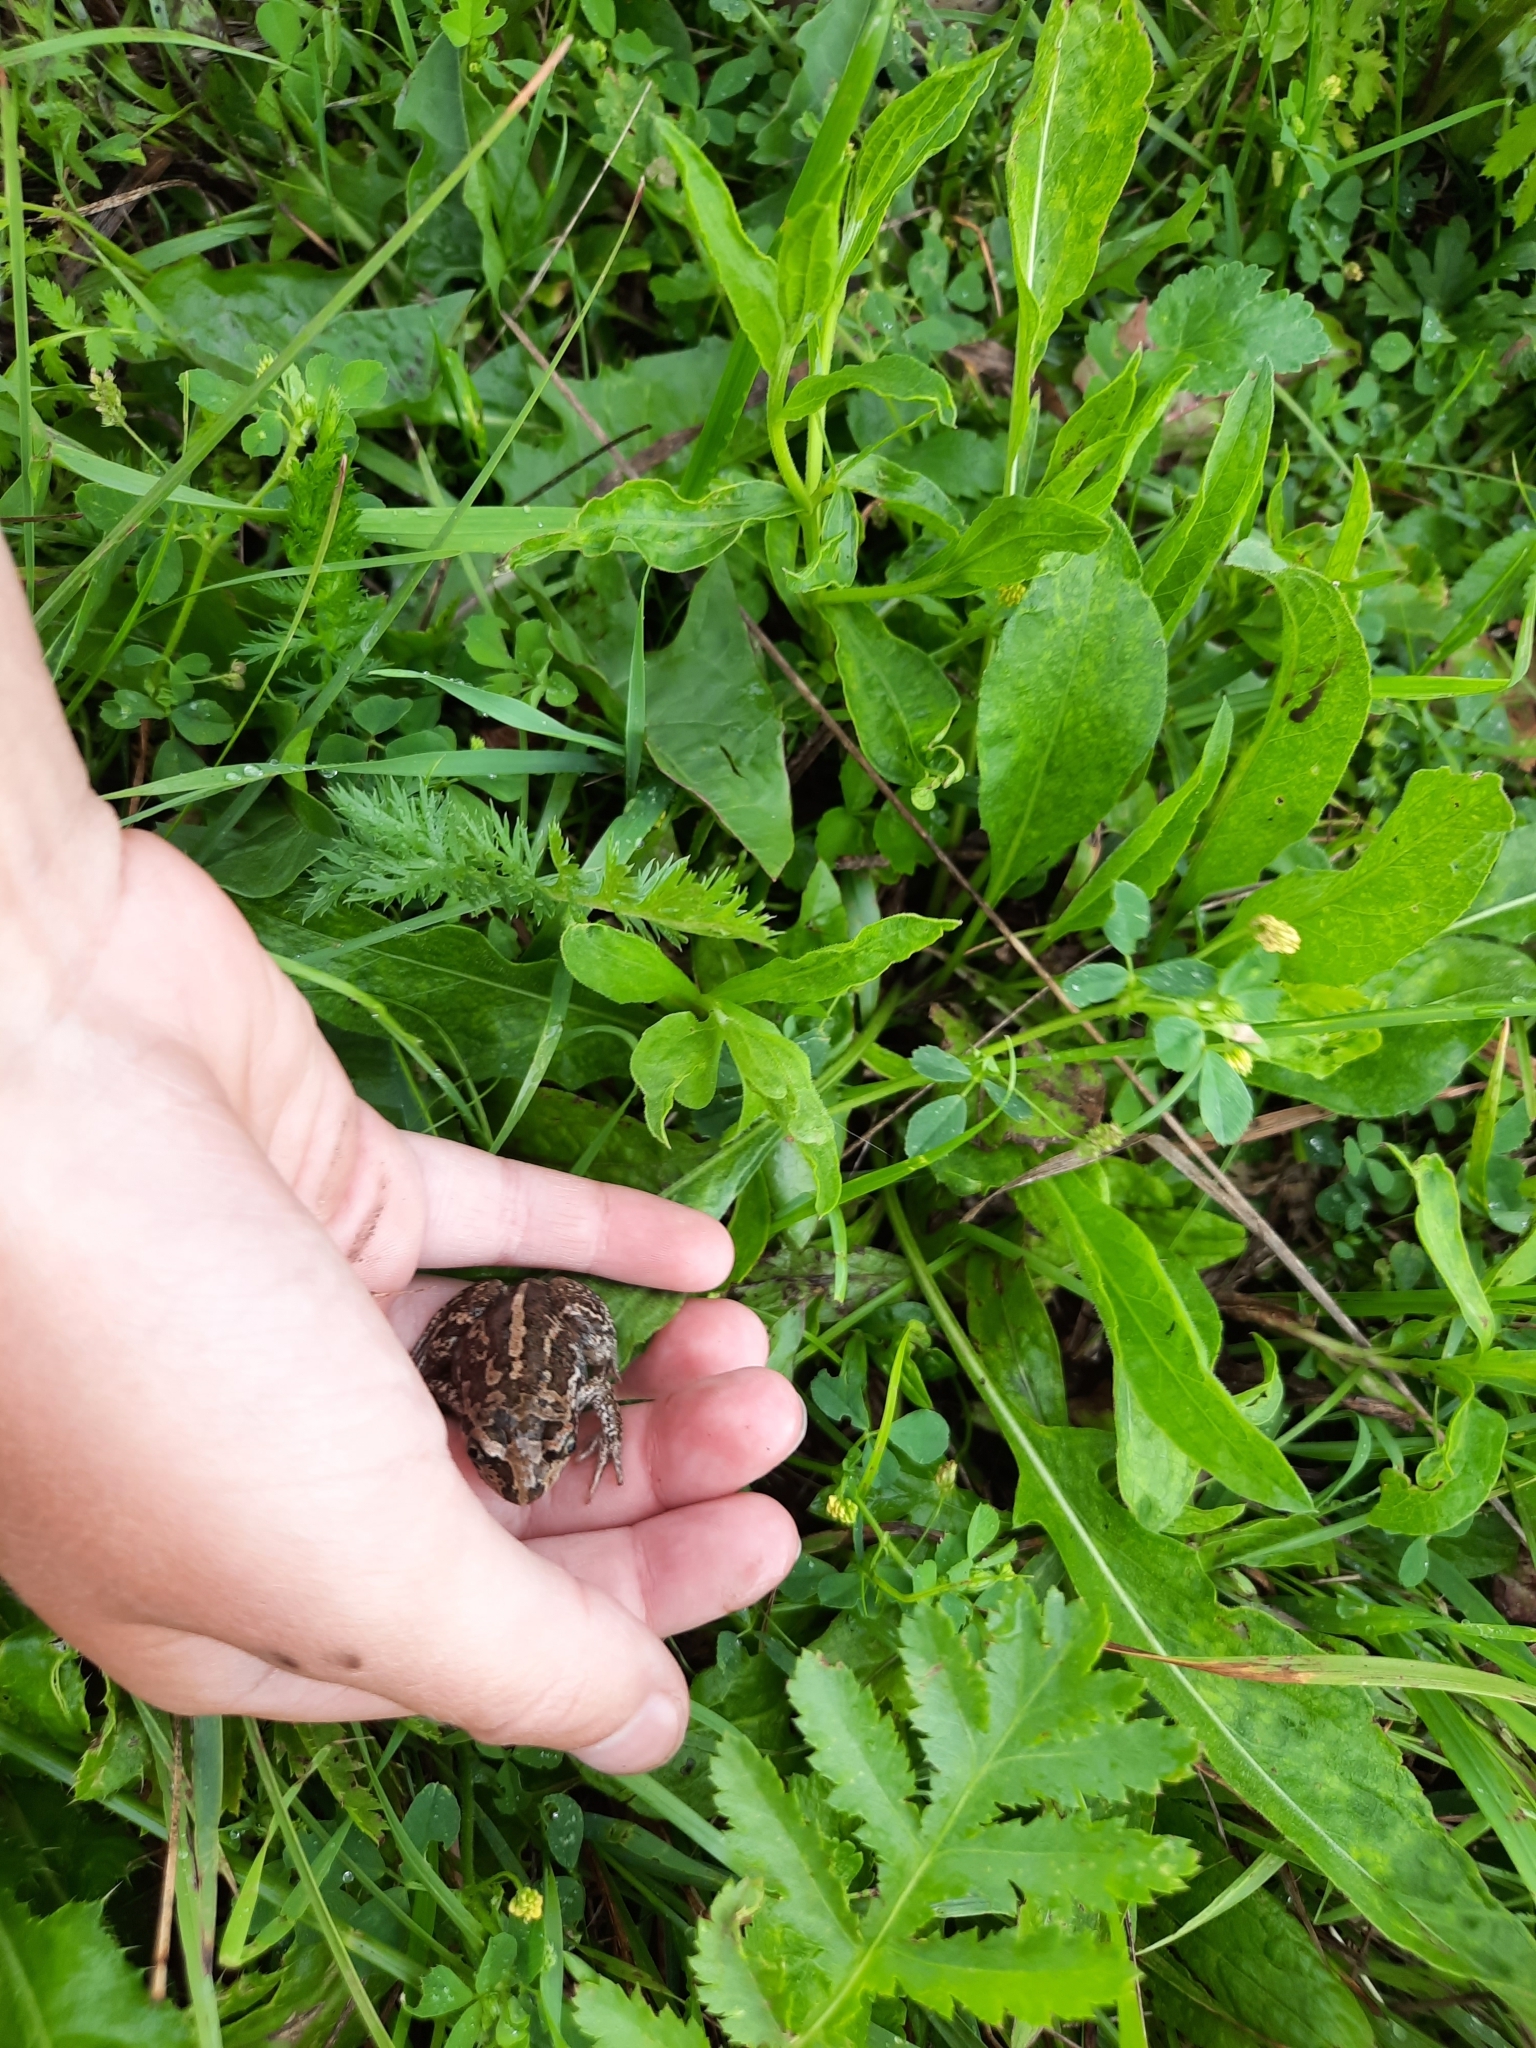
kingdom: Animalia
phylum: Chordata
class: Amphibia
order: Anura
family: Pelobatidae
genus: Pelobates
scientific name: Pelobates vespertinus
